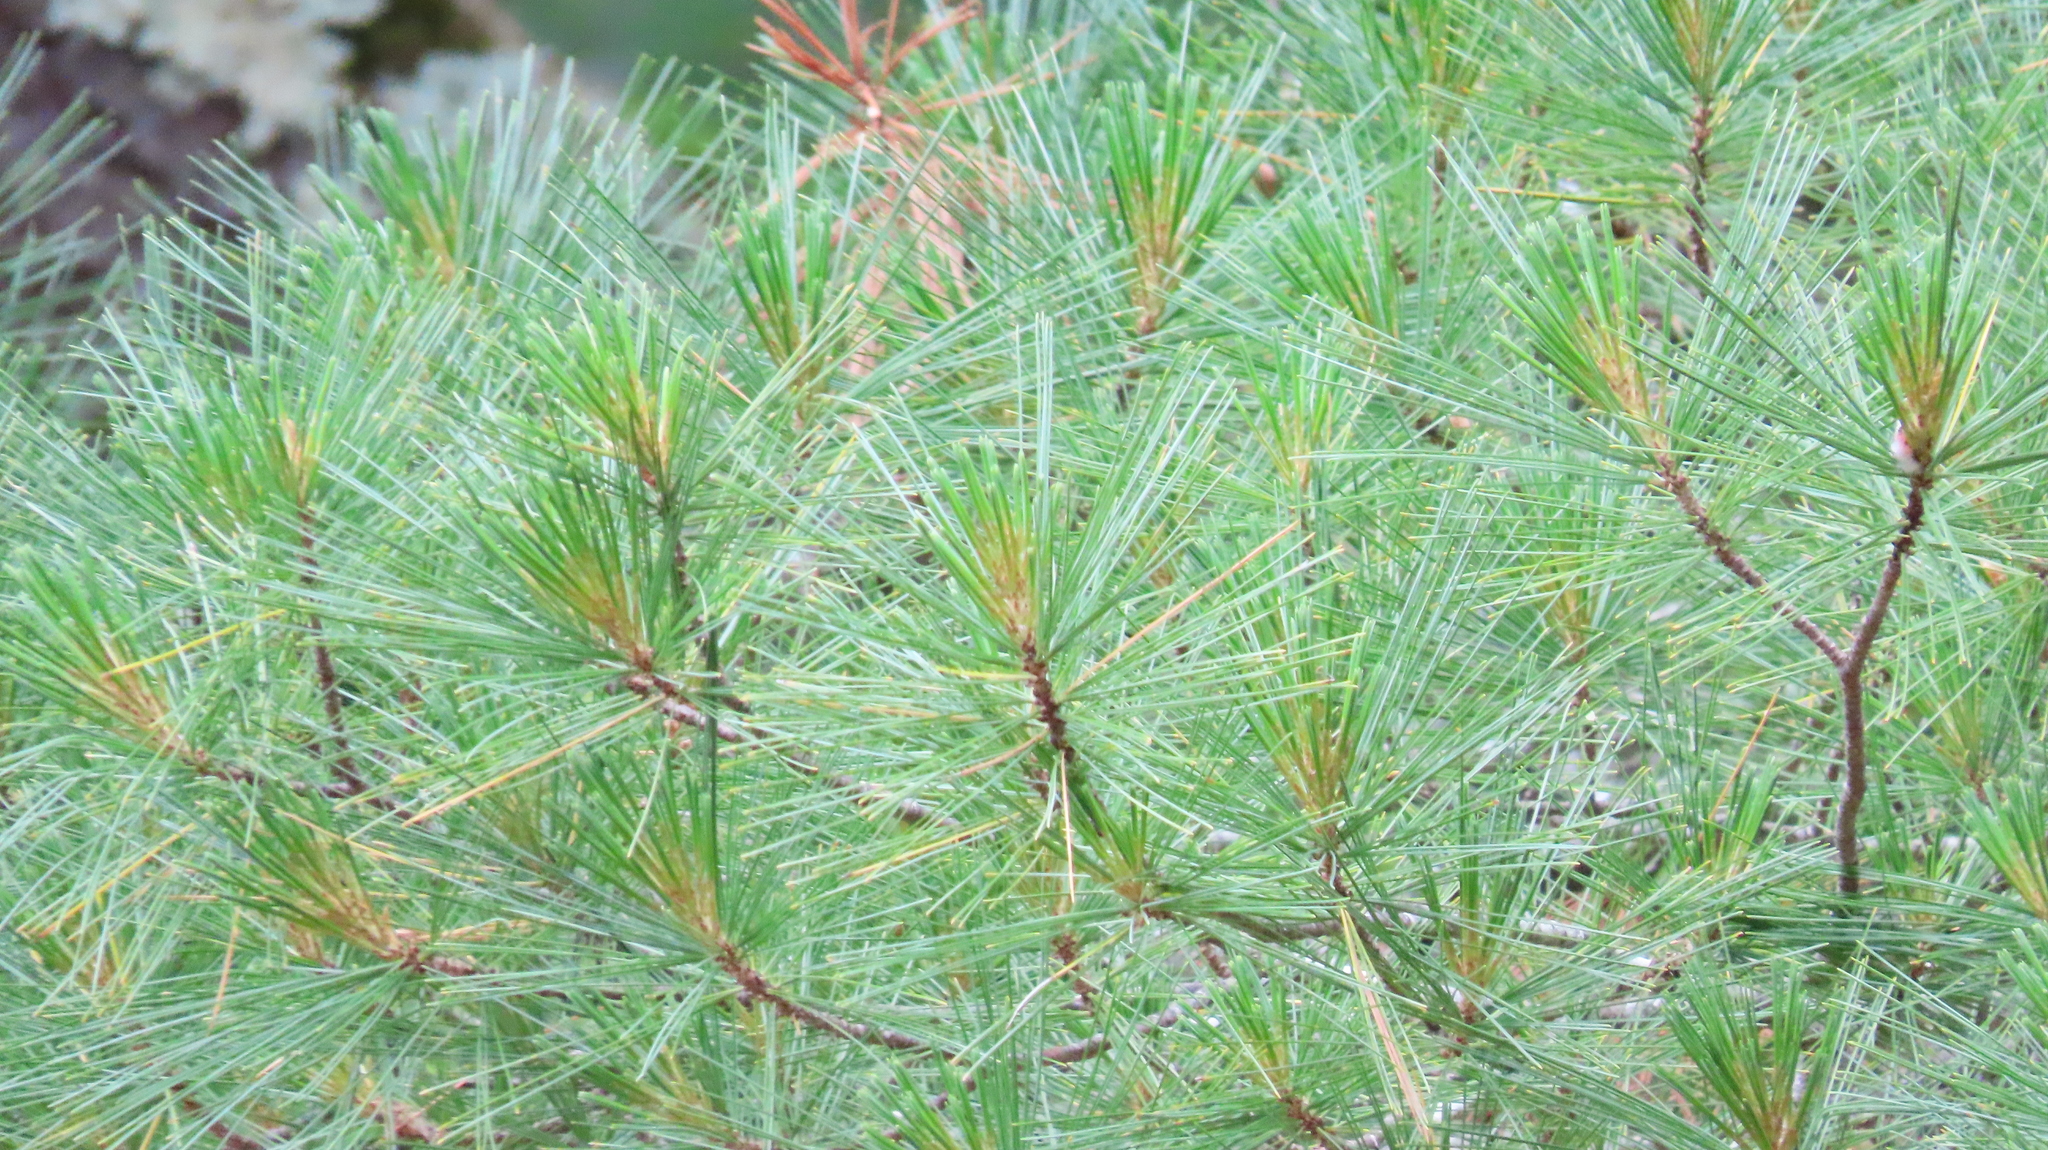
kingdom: Plantae
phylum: Tracheophyta
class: Pinopsida
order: Pinales
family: Pinaceae
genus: Pinus
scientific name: Pinus strobus
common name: Weymouth pine
